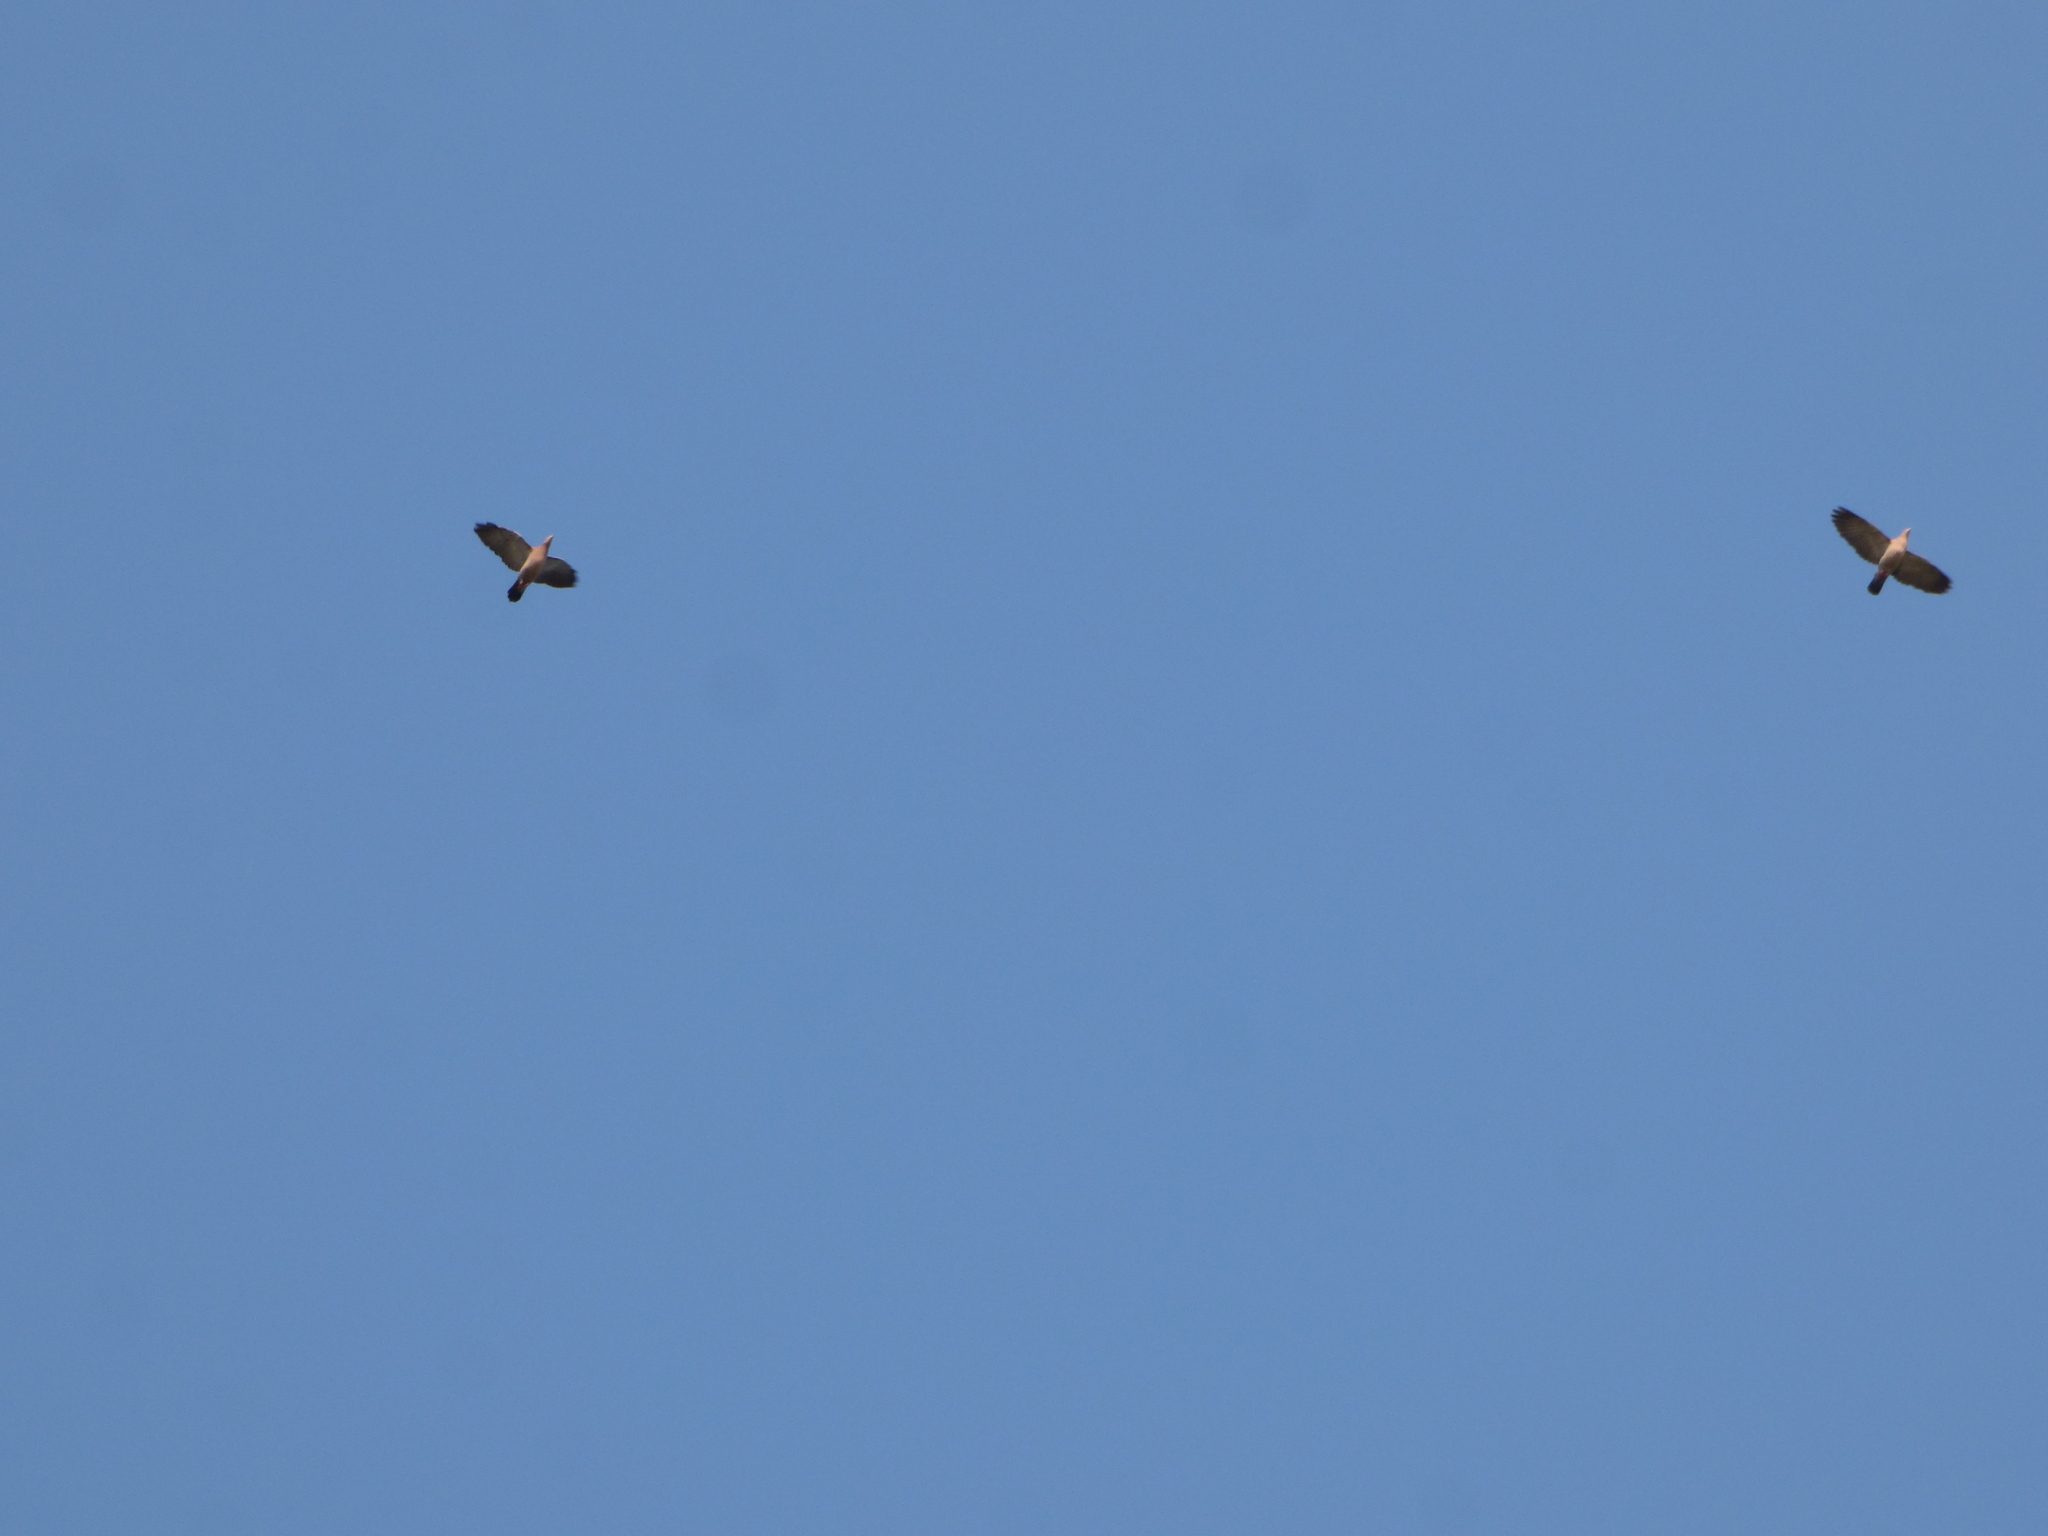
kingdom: Animalia
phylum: Chordata
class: Aves
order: Columbiformes
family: Columbidae
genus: Patagioenas
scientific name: Patagioenas picazuro
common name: Picazuro pigeon
